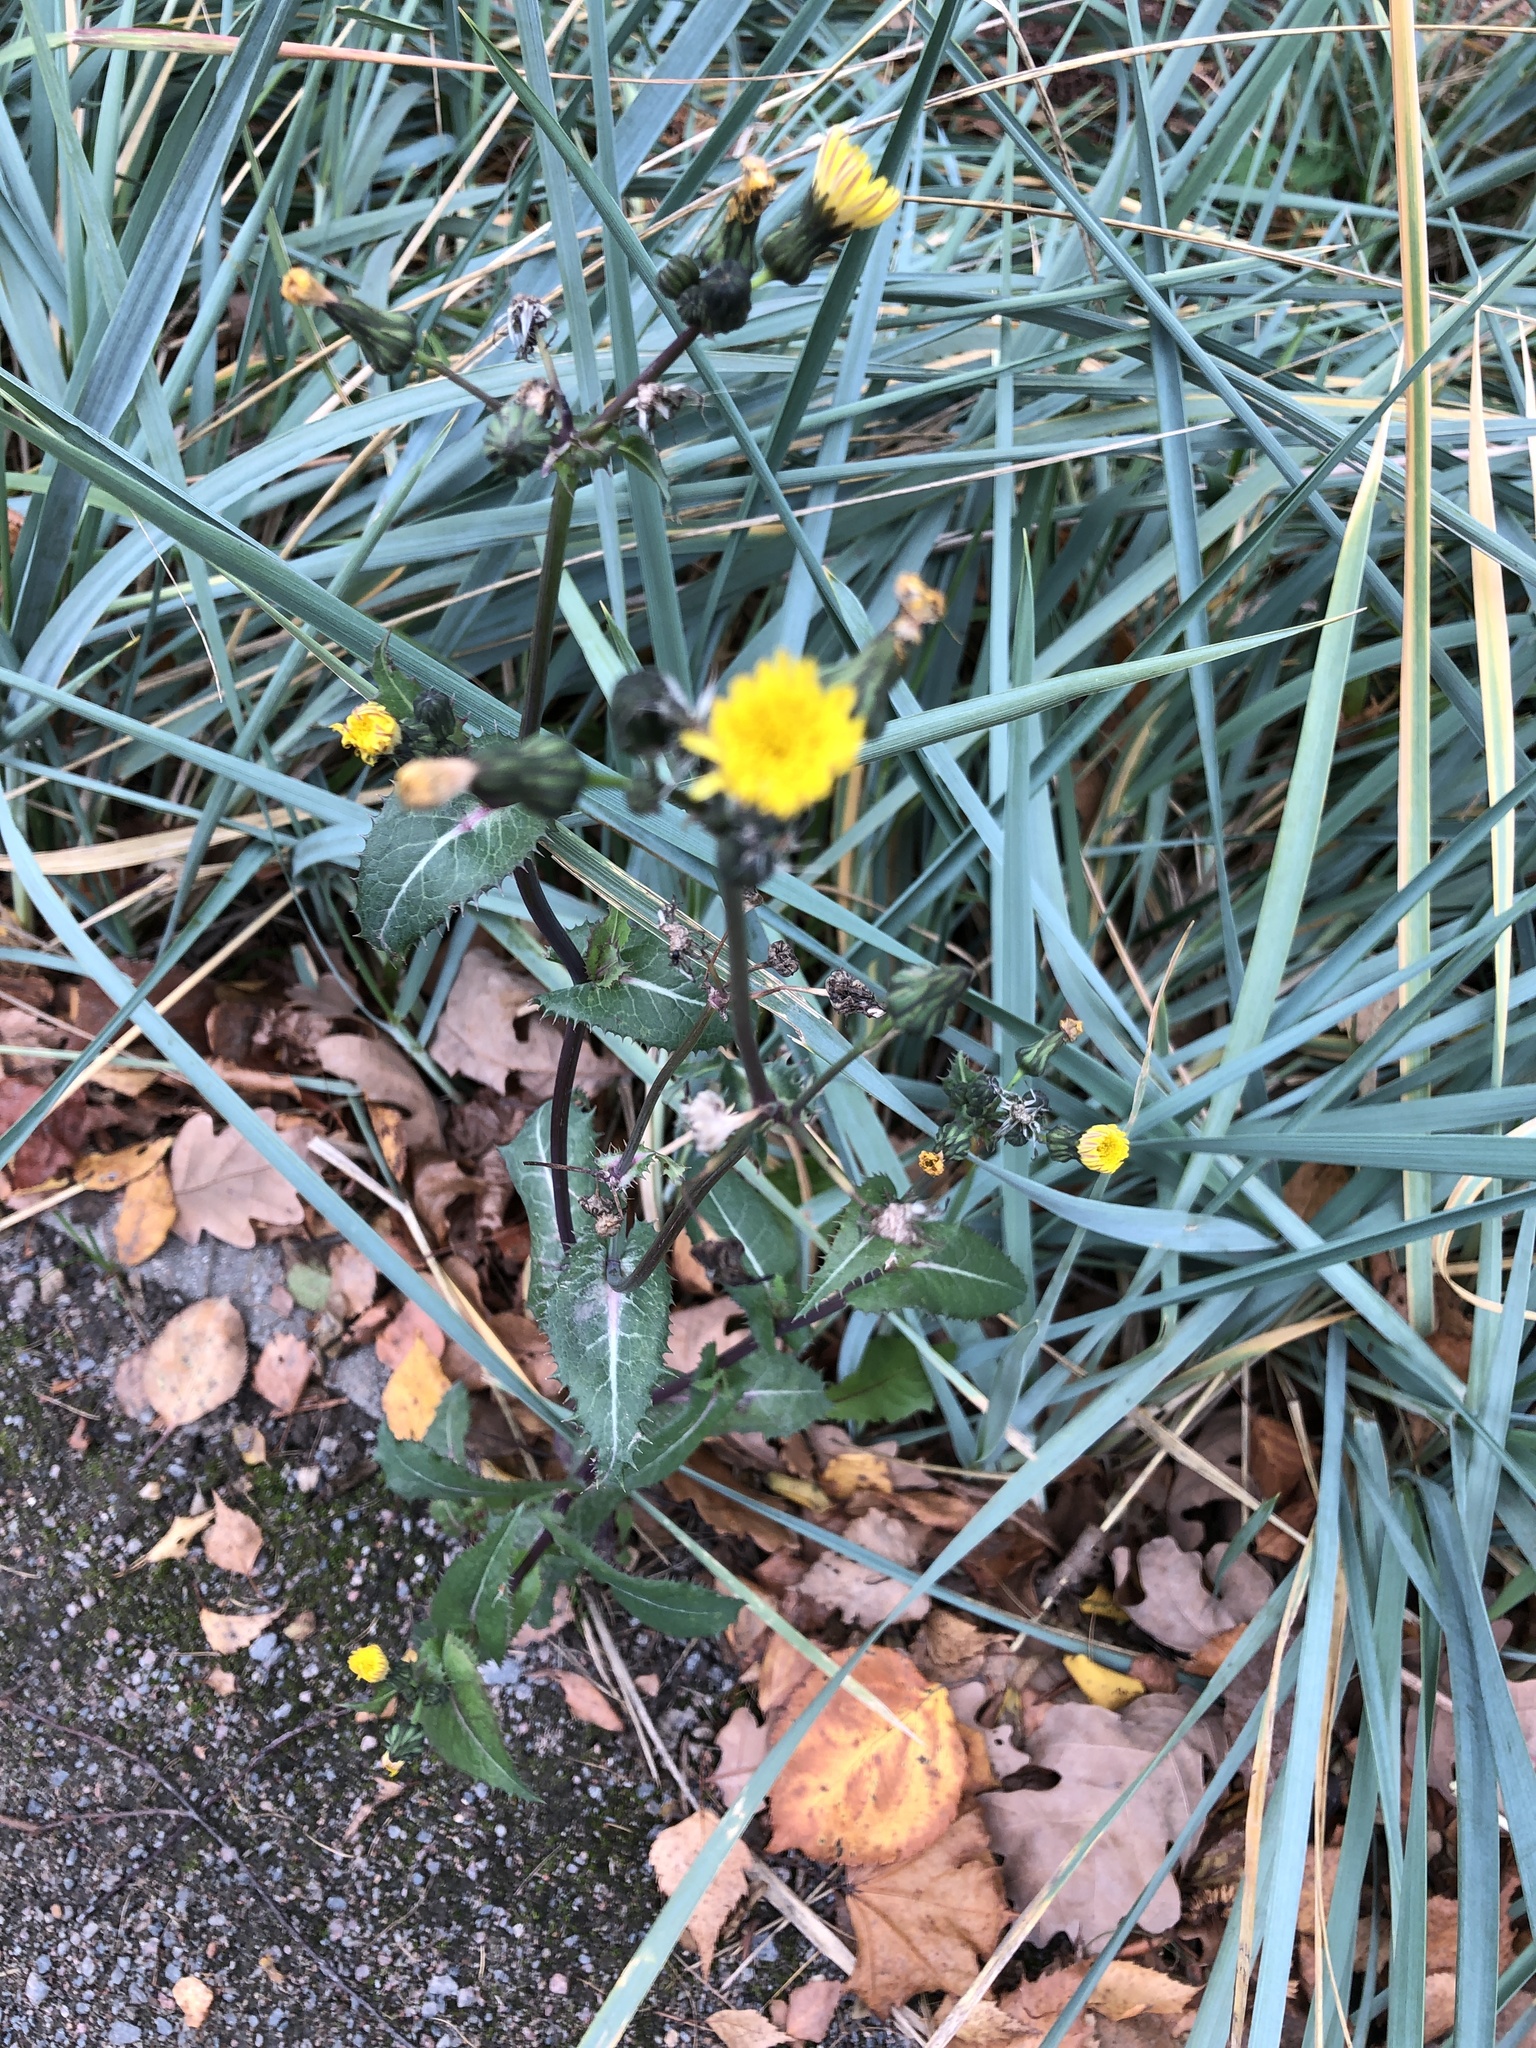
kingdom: Plantae
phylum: Tracheophyta
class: Magnoliopsida
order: Asterales
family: Asteraceae
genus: Sonchus
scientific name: Sonchus asper
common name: Prickly sow-thistle
